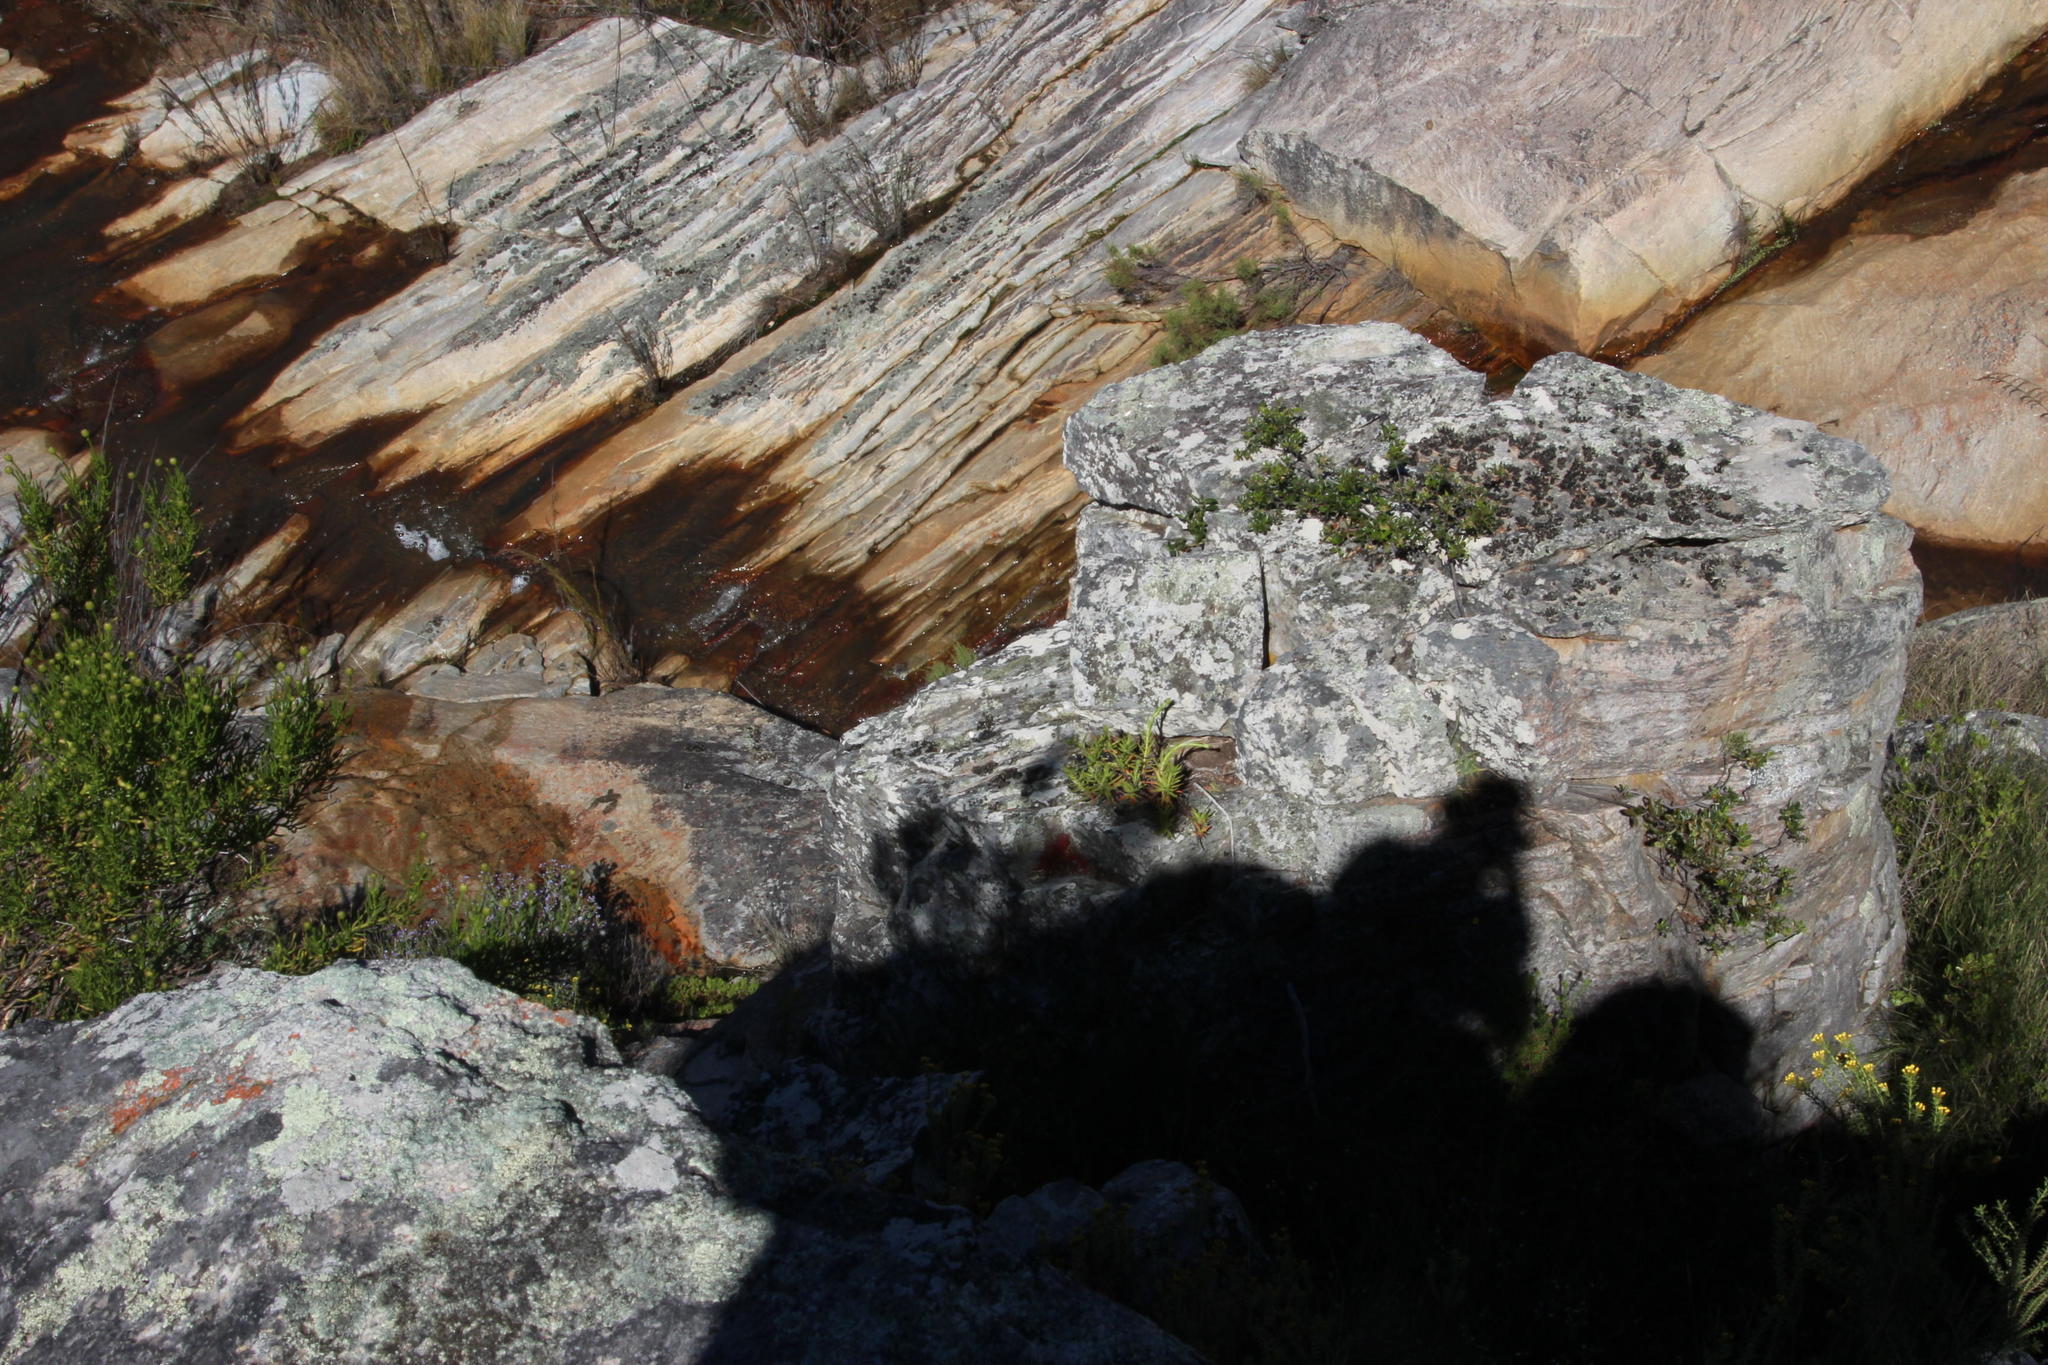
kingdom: Plantae
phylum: Tracheophyta
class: Magnoliopsida
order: Saxifragales
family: Crassulaceae
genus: Crassula
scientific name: Crassula multiflora
